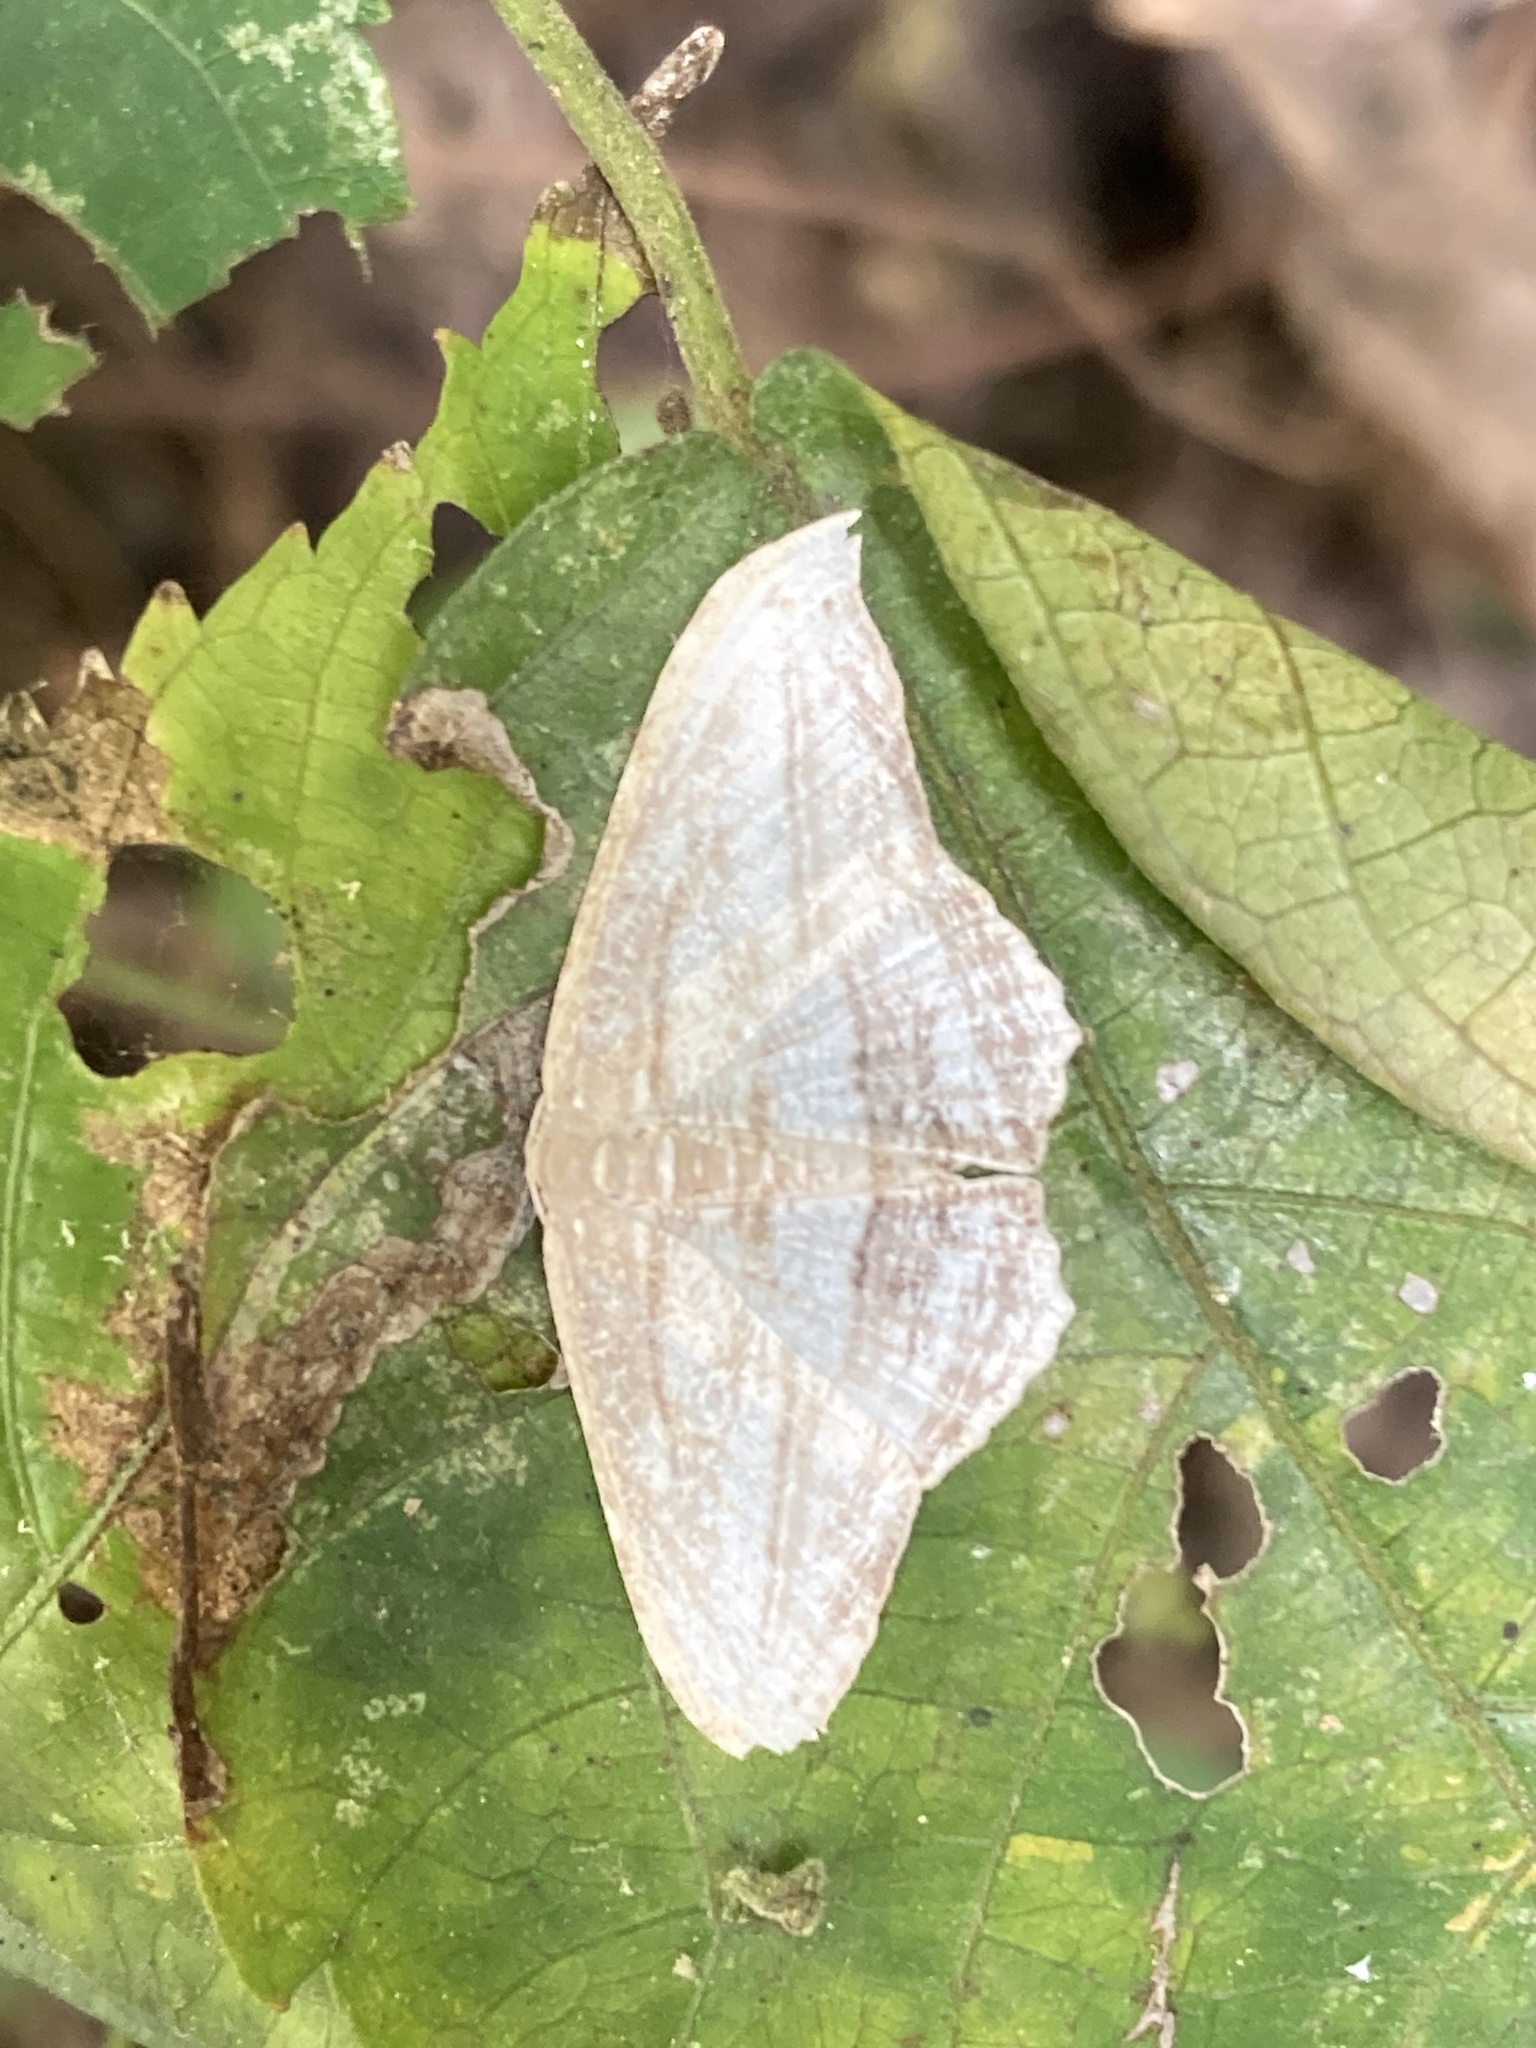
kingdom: Animalia
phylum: Arthropoda
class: Insecta
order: Lepidoptera
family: Uraniidae
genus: Morphomima
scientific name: Morphomima fulvitacta
